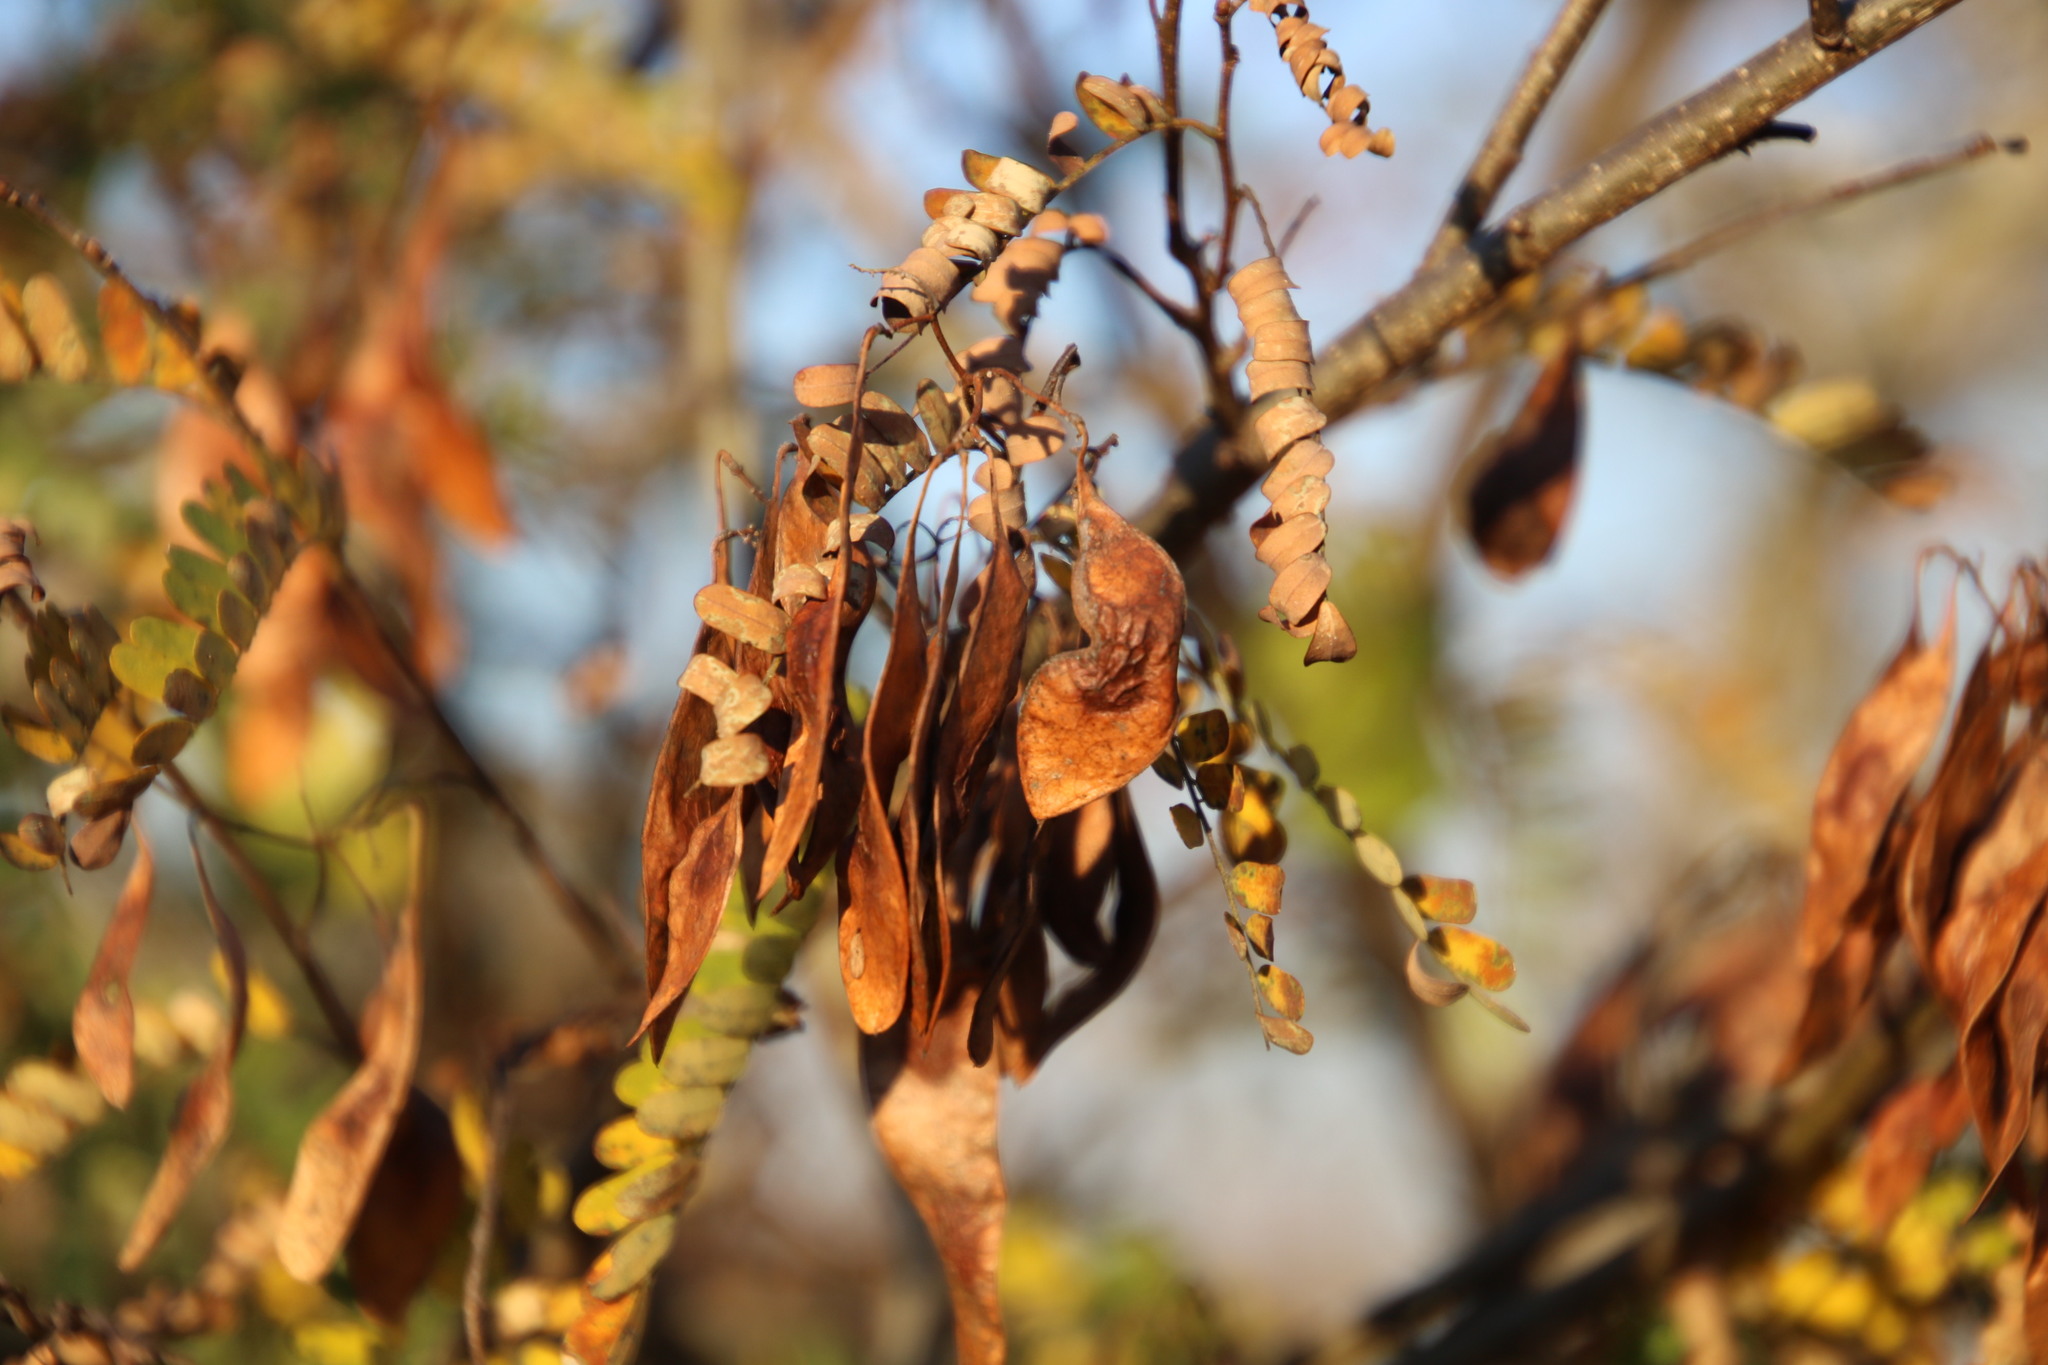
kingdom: Plantae
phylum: Tracheophyta
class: Magnoliopsida
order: Fabales
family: Fabaceae
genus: Dalbergia
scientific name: Dalbergia armata
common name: Hluhluwe climber
